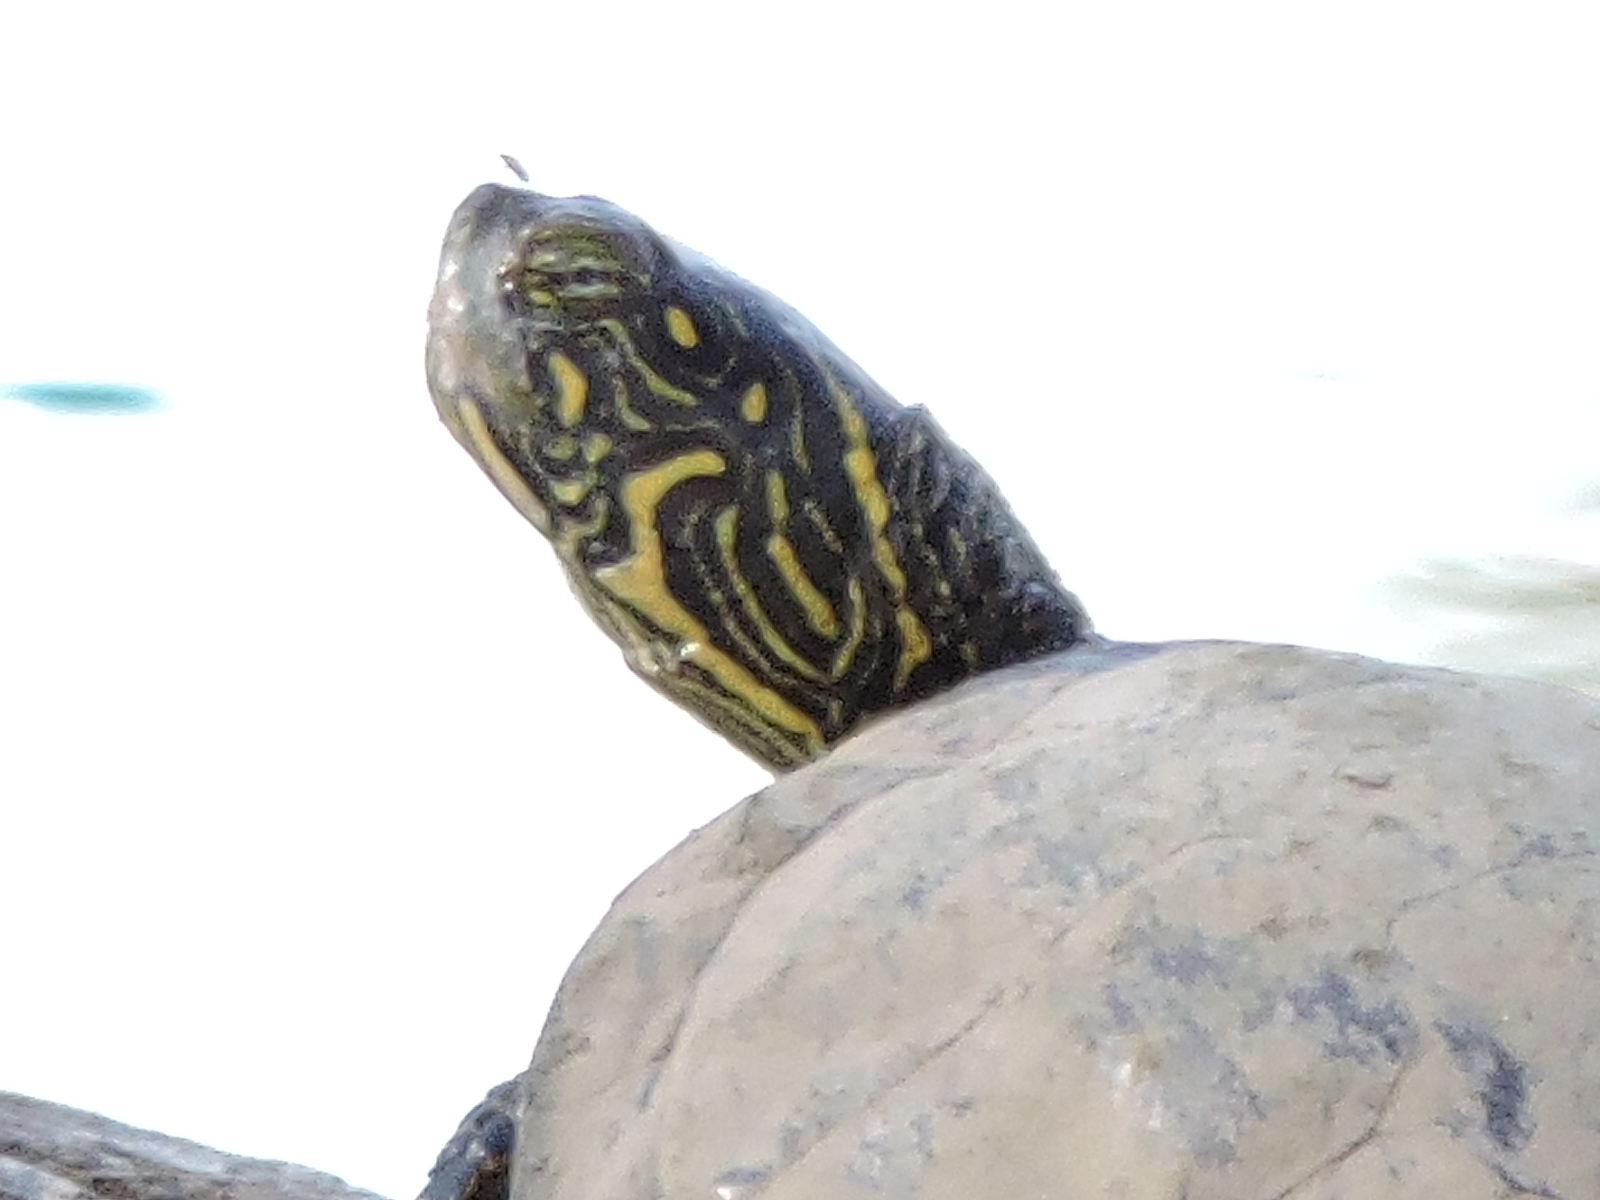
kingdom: Animalia
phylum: Chordata
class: Testudines
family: Emydidae
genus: Pseudemys
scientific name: Pseudemys texana
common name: Texas river cooter
